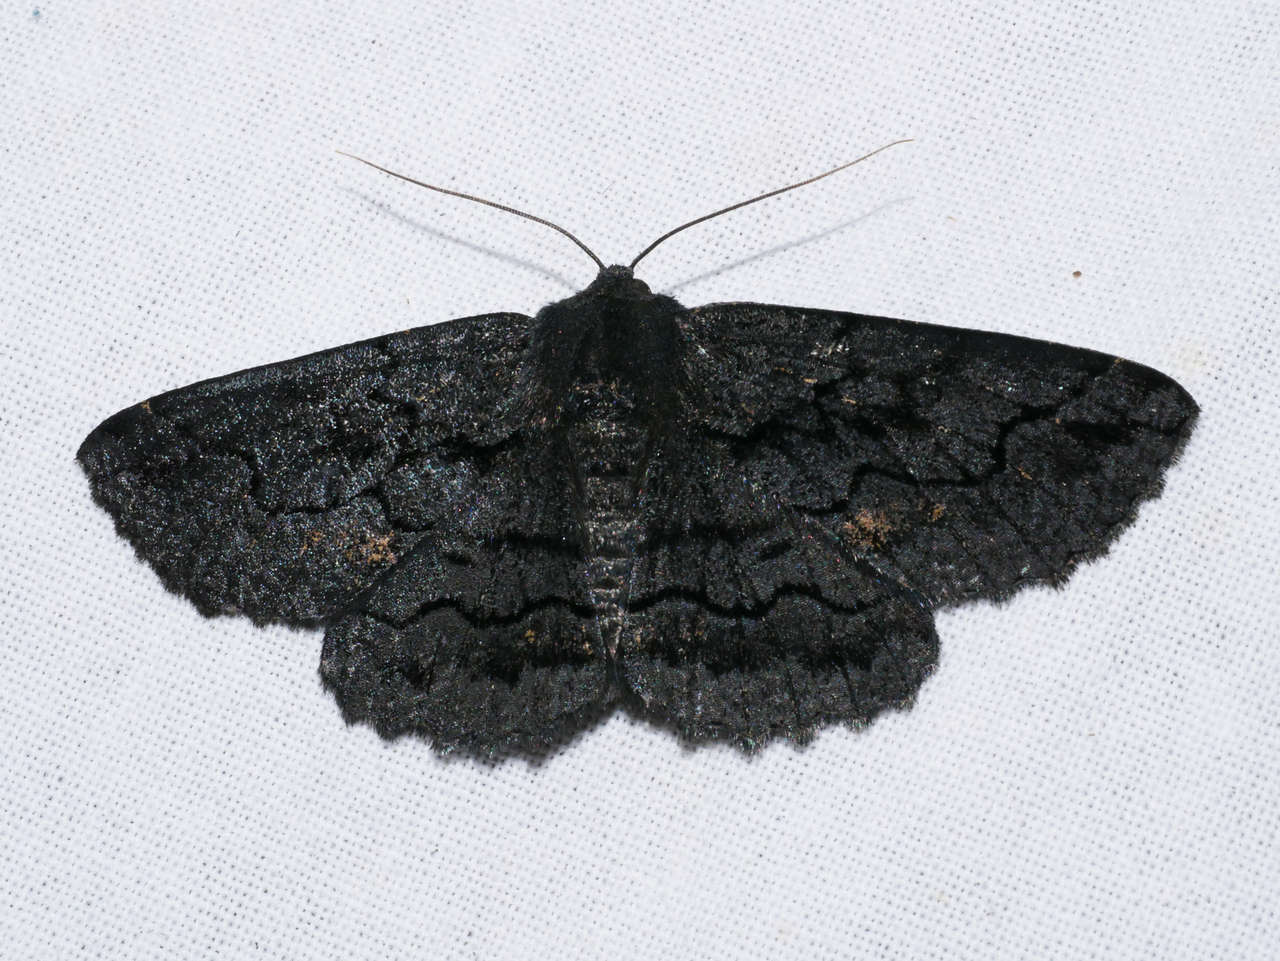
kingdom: Animalia
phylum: Arthropoda
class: Insecta
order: Lepidoptera
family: Geometridae
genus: Melanodes
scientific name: Melanodes anthracitaria
